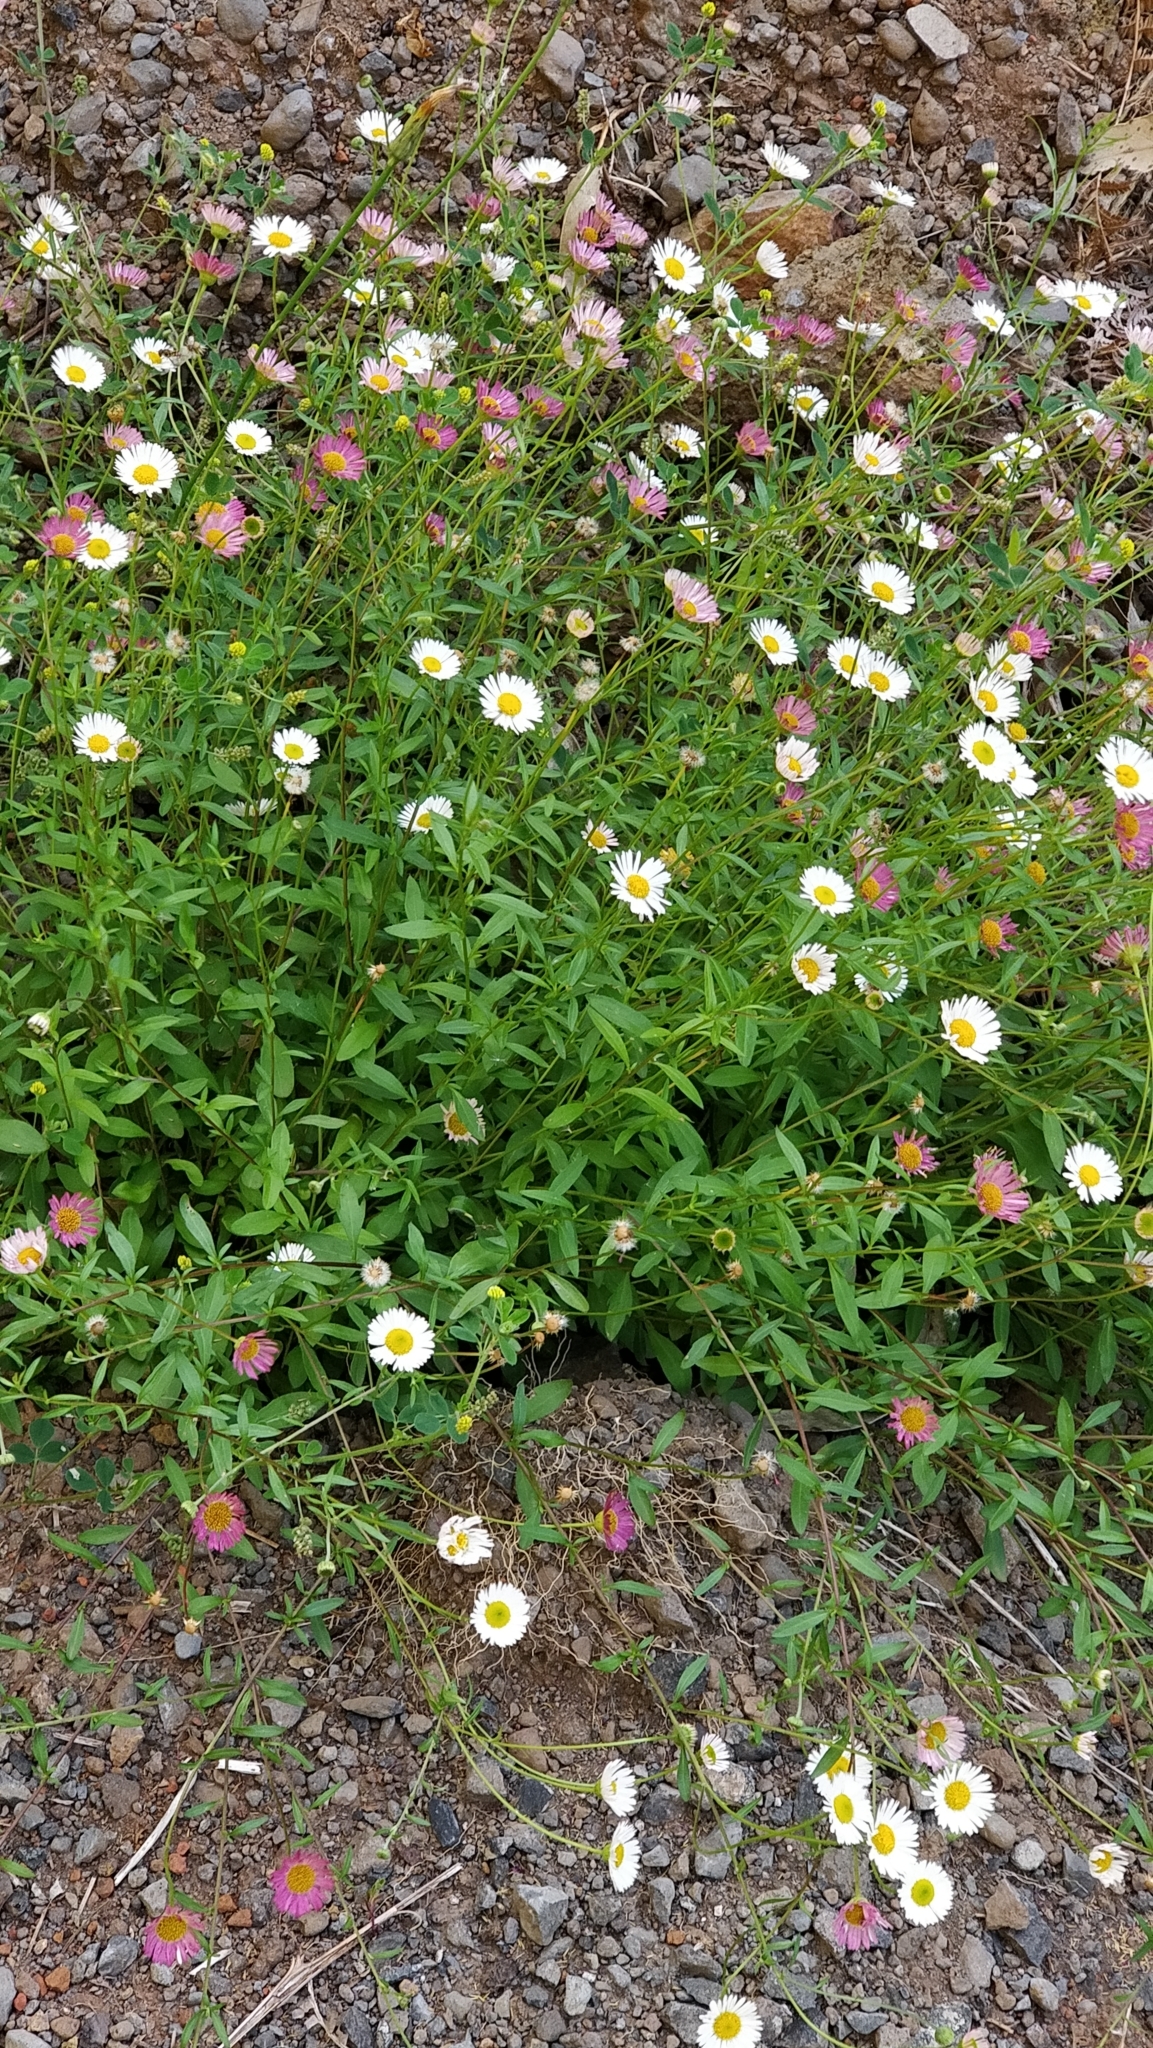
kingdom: Plantae
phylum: Tracheophyta
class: Magnoliopsida
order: Asterales
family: Asteraceae
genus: Erigeron
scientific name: Erigeron karvinskianus
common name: Mexican fleabane
